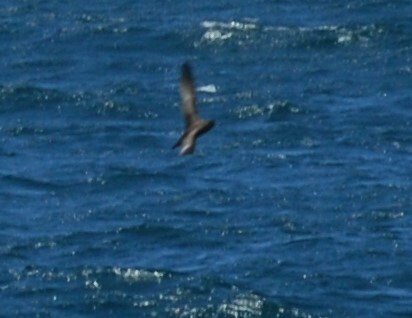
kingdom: Animalia
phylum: Chordata
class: Aves
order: Procellariiformes
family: Procellariidae
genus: Puffinus
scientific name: Puffinus tenuirostris
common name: Short-tailed shearwater
